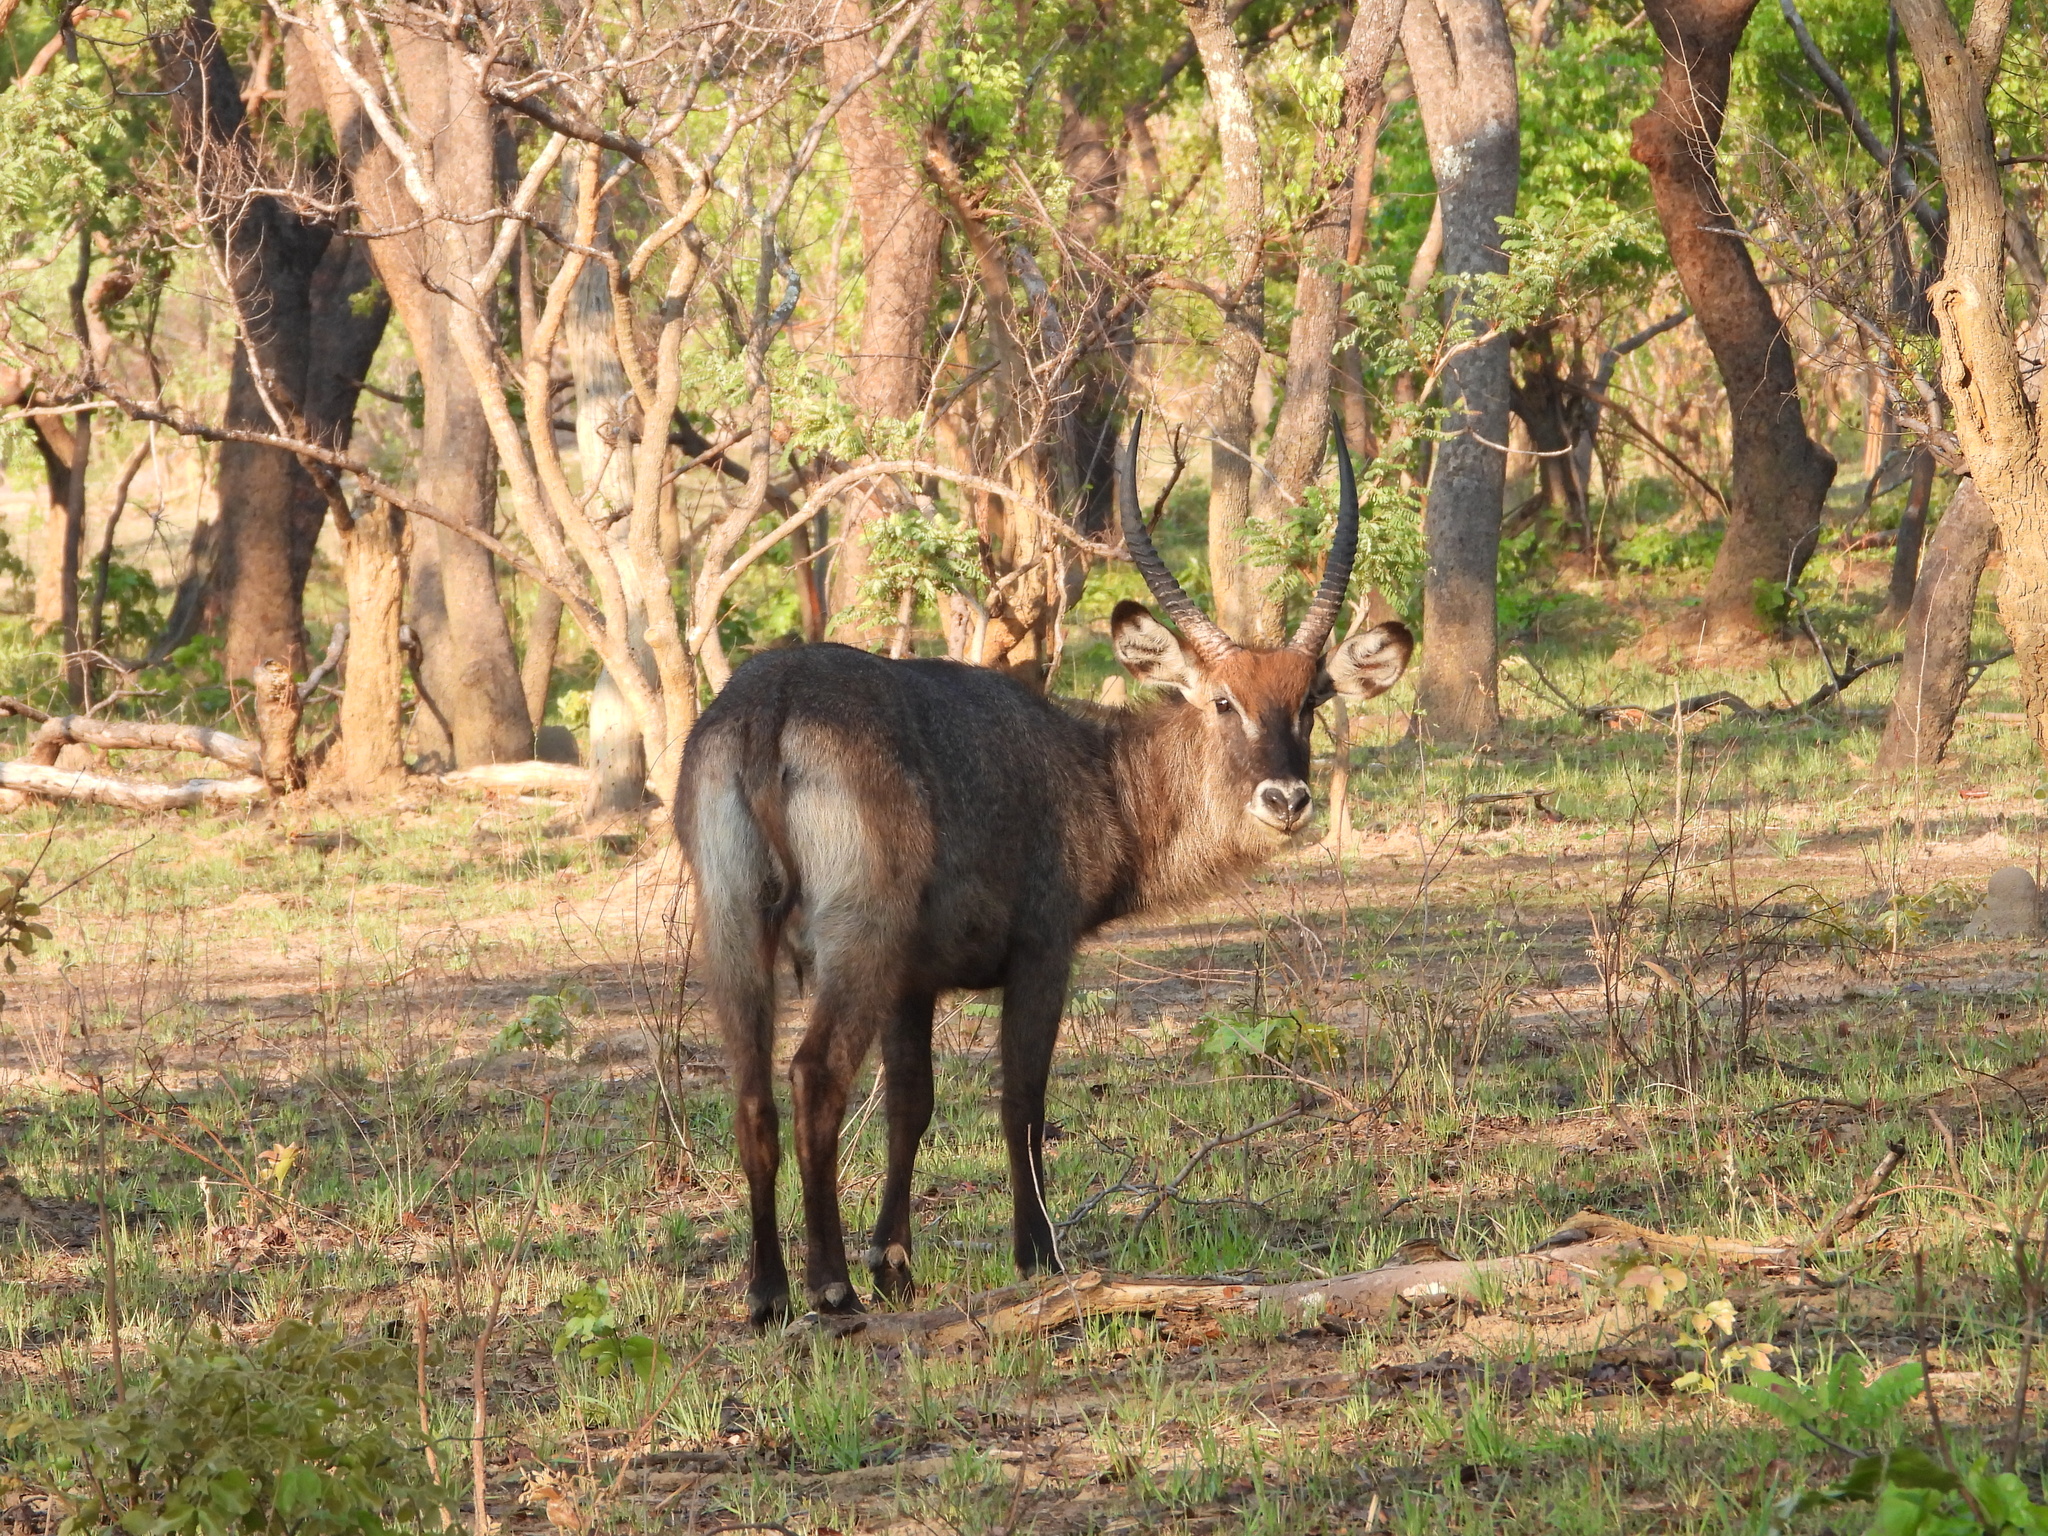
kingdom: Animalia
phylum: Chordata
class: Mammalia
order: Artiodactyla
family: Bovidae
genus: Kobus
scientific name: Kobus ellipsiprymnus
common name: Waterbuck
